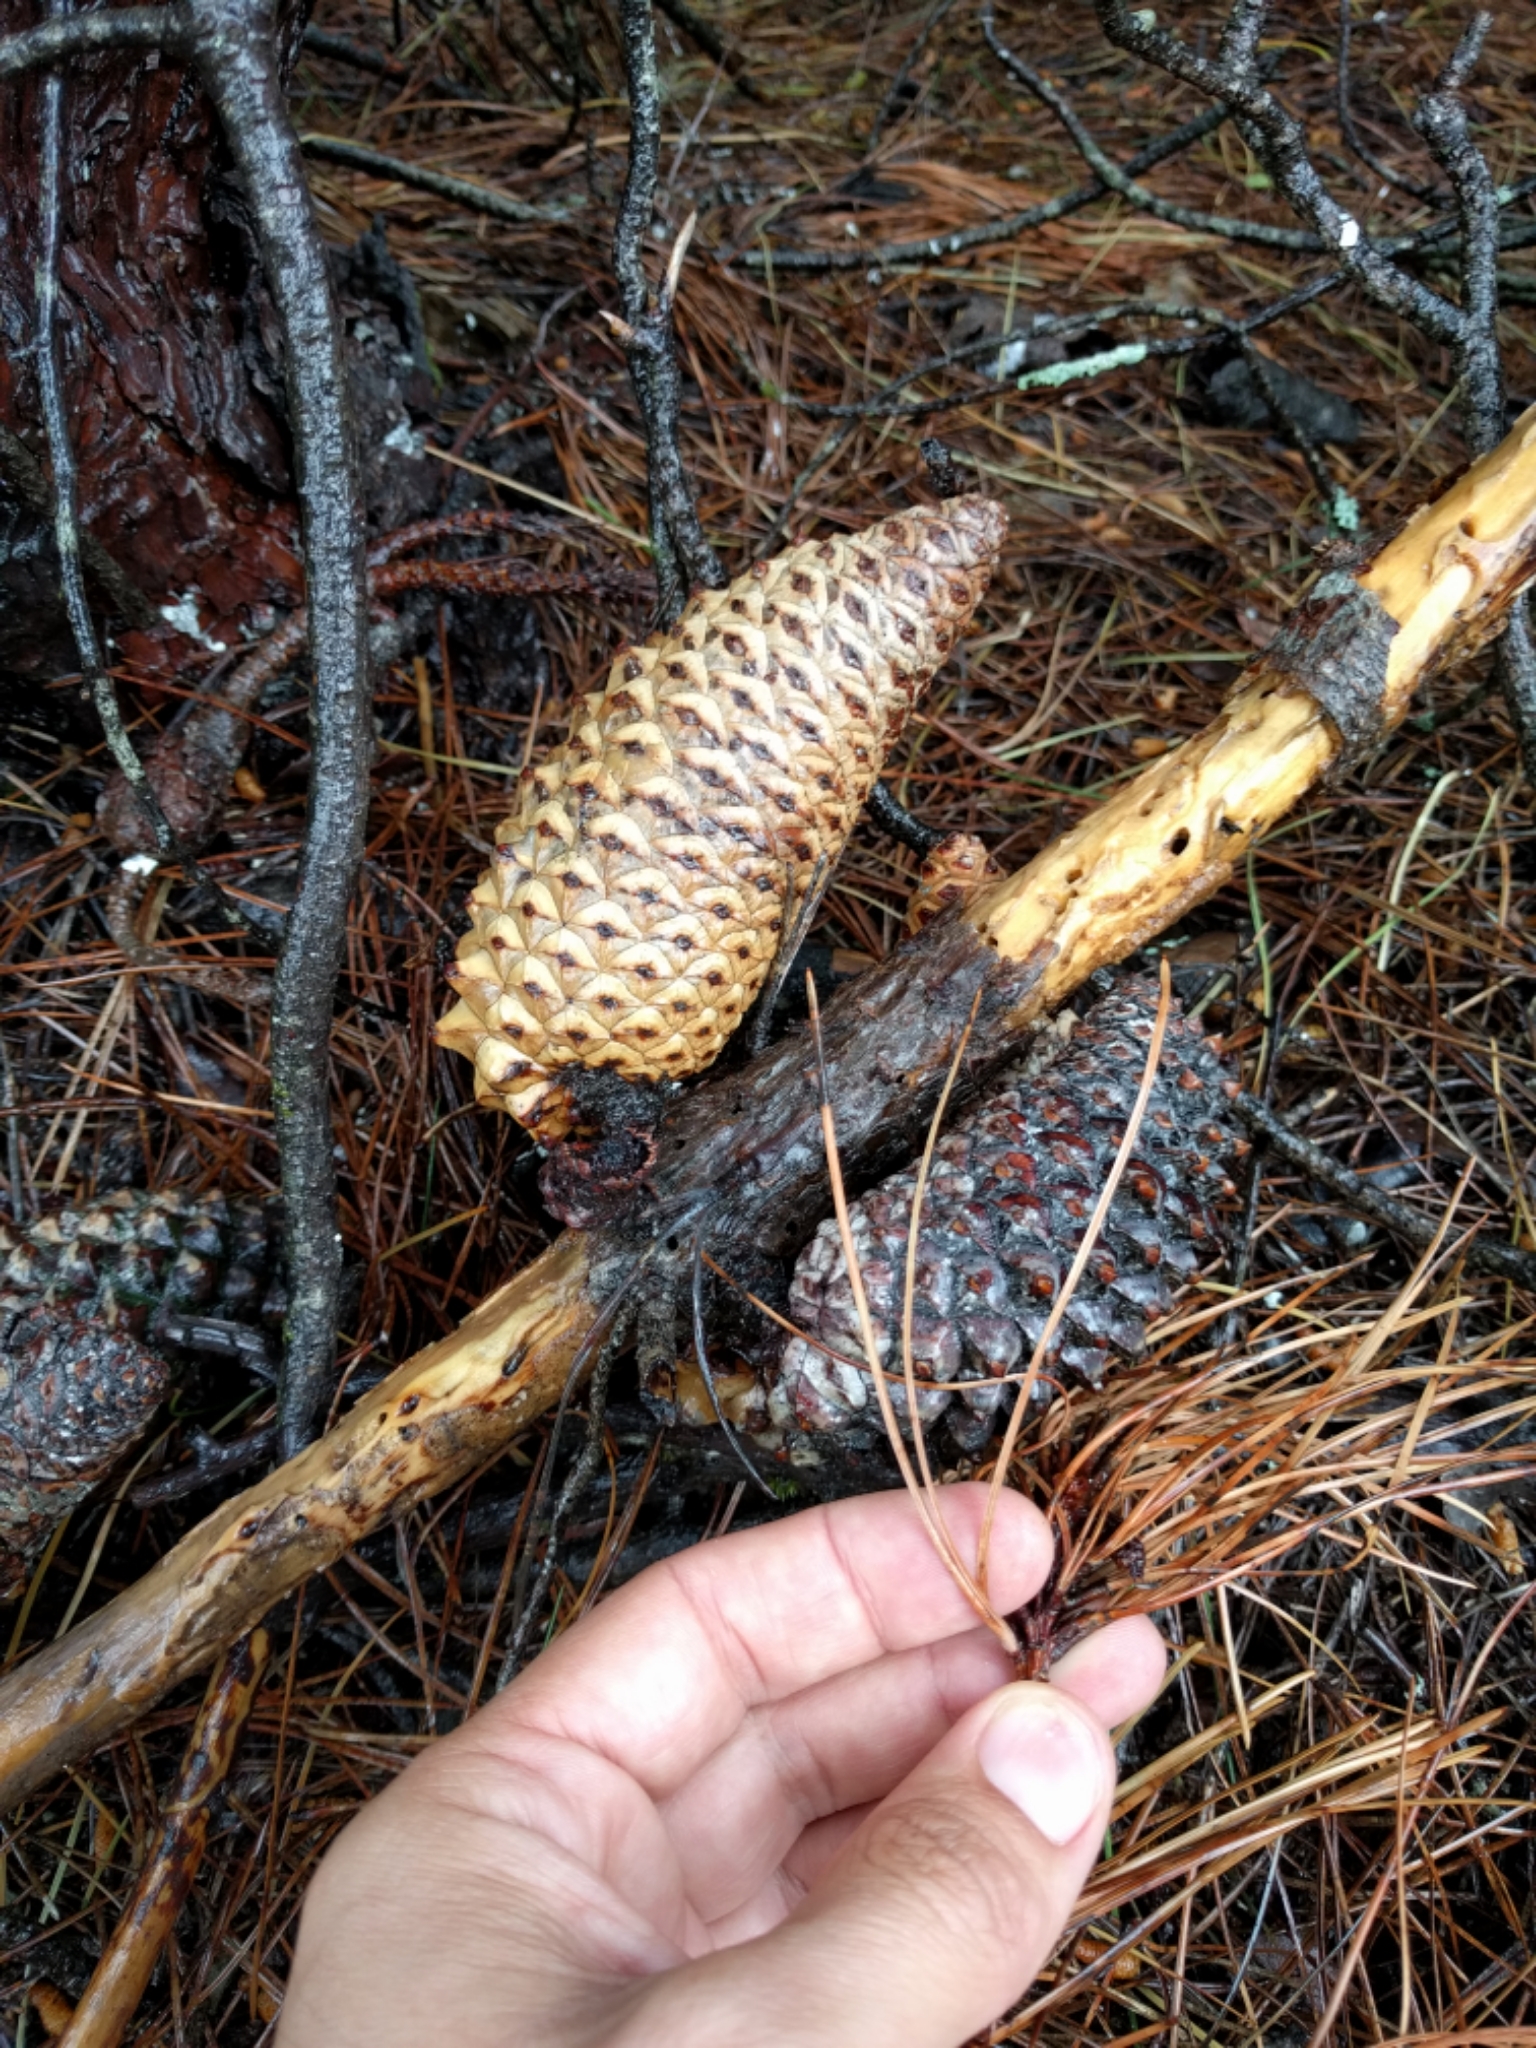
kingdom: Plantae
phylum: Tracheophyta
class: Pinopsida
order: Pinales
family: Pinaceae
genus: Pinus
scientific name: Pinus attenuata
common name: Knobcone pine
